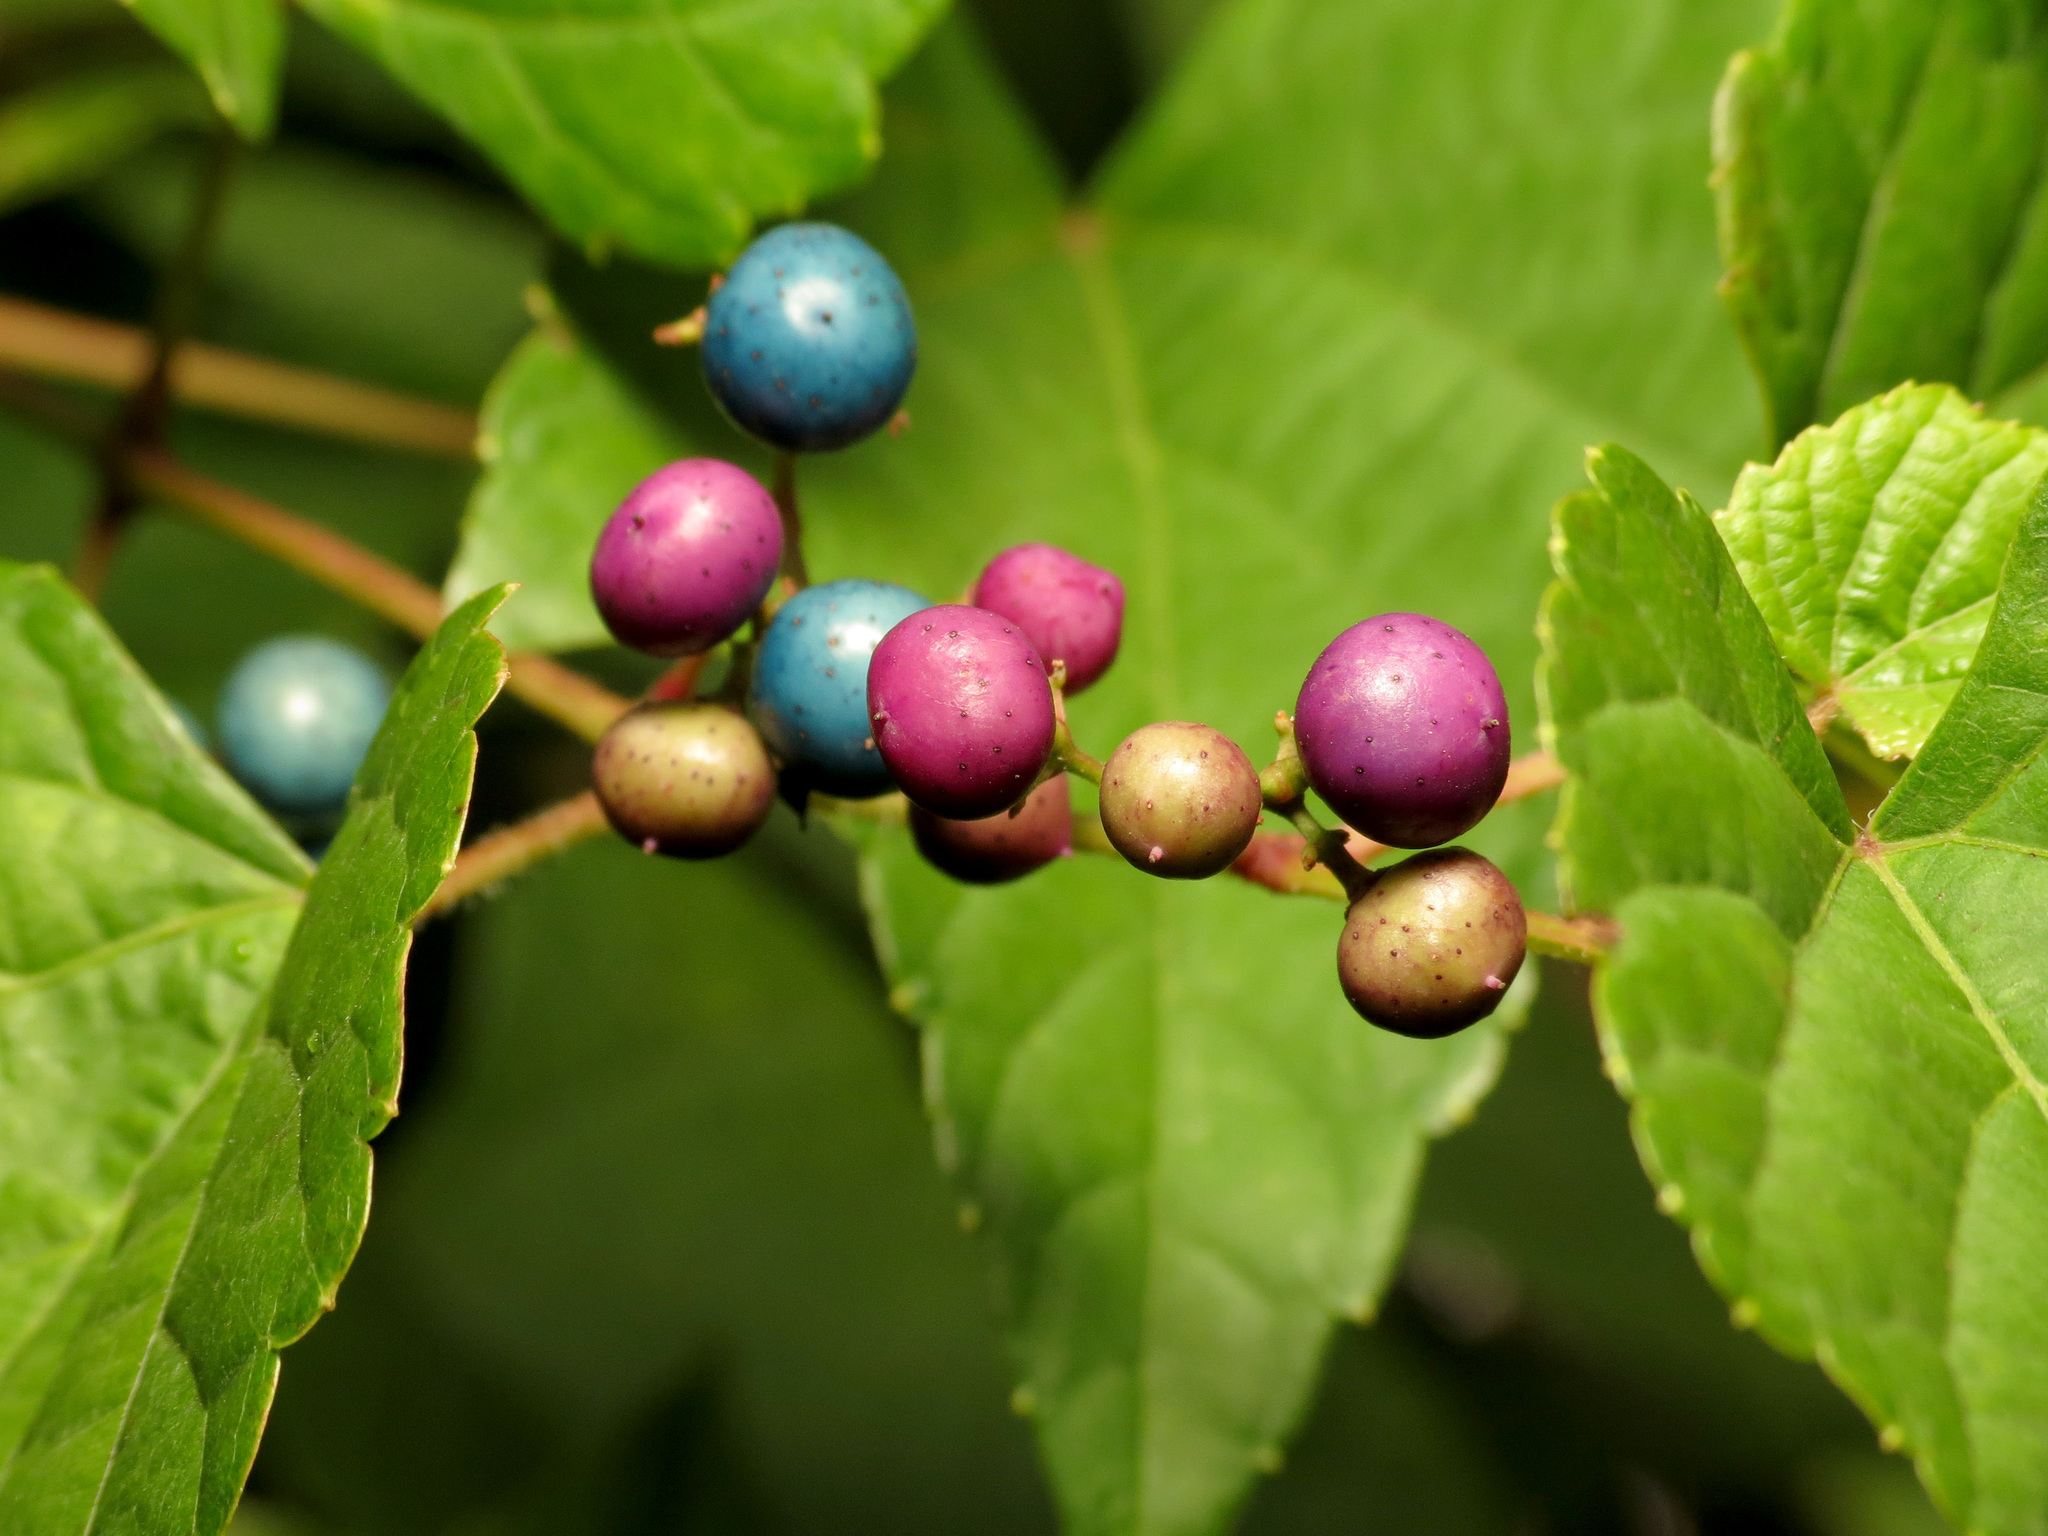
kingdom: Plantae
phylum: Tracheophyta
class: Magnoliopsida
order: Vitales
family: Vitaceae
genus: Ampelopsis
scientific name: Ampelopsis glandulosa
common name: Amur peppervine
